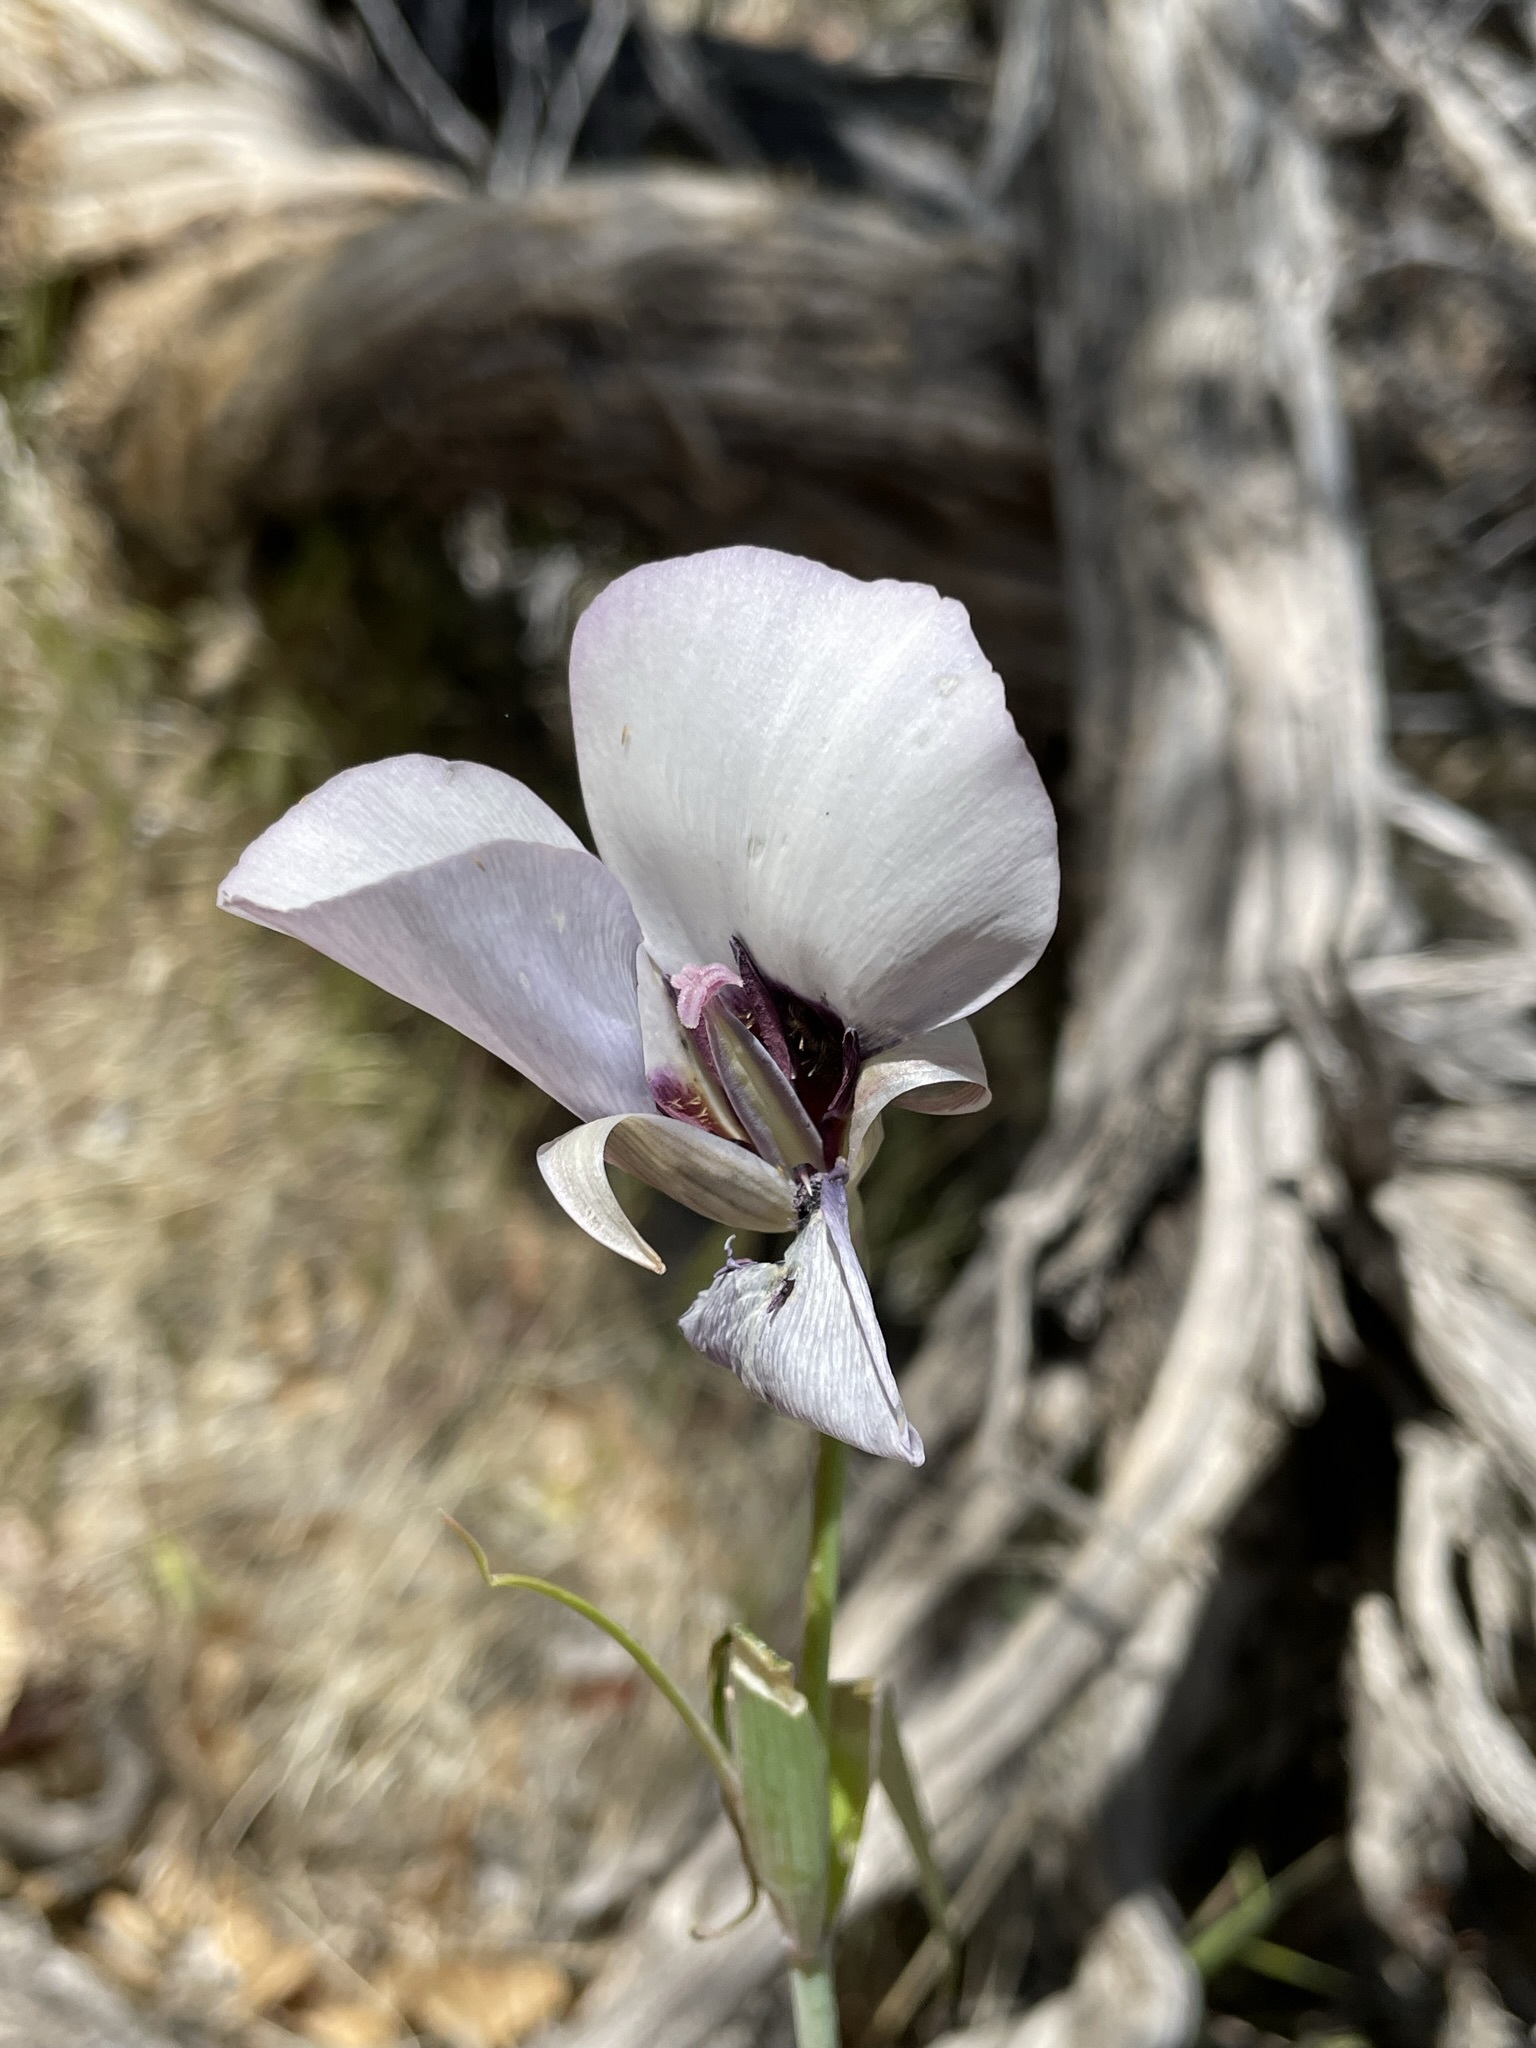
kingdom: Plantae
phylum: Tracheophyta
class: Liliopsida
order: Liliales
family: Liliaceae
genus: Calochortus
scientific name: Calochortus excavatus
